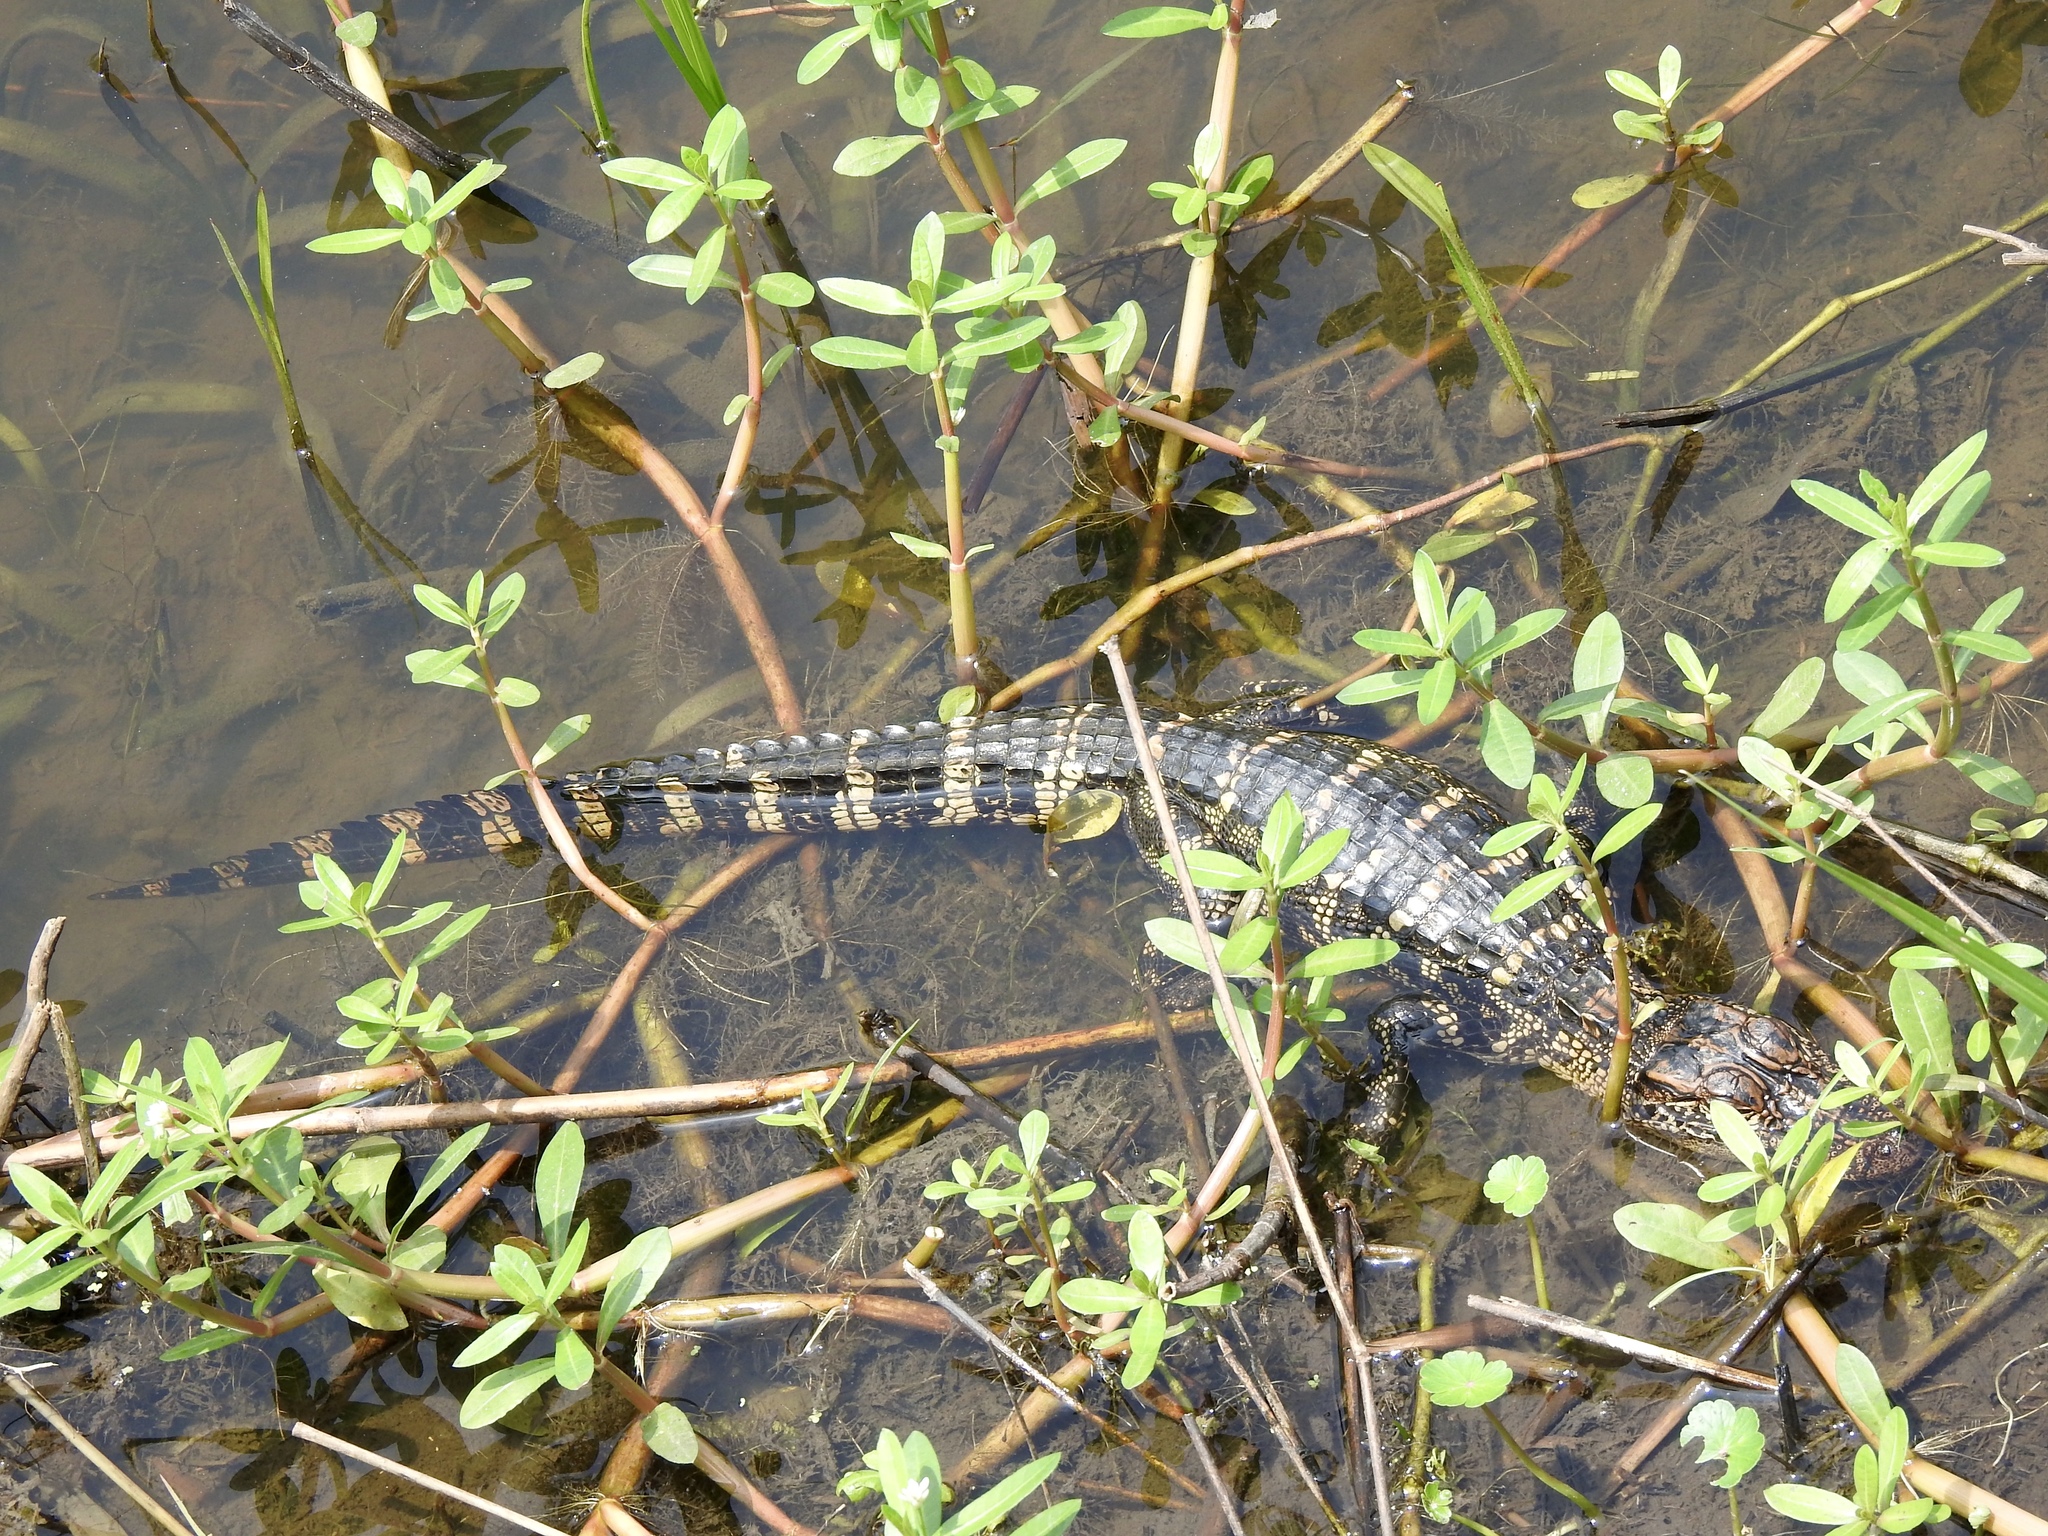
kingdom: Animalia
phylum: Chordata
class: Crocodylia
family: Alligatoridae
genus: Alligator
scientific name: Alligator mississippiensis
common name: American alligator
